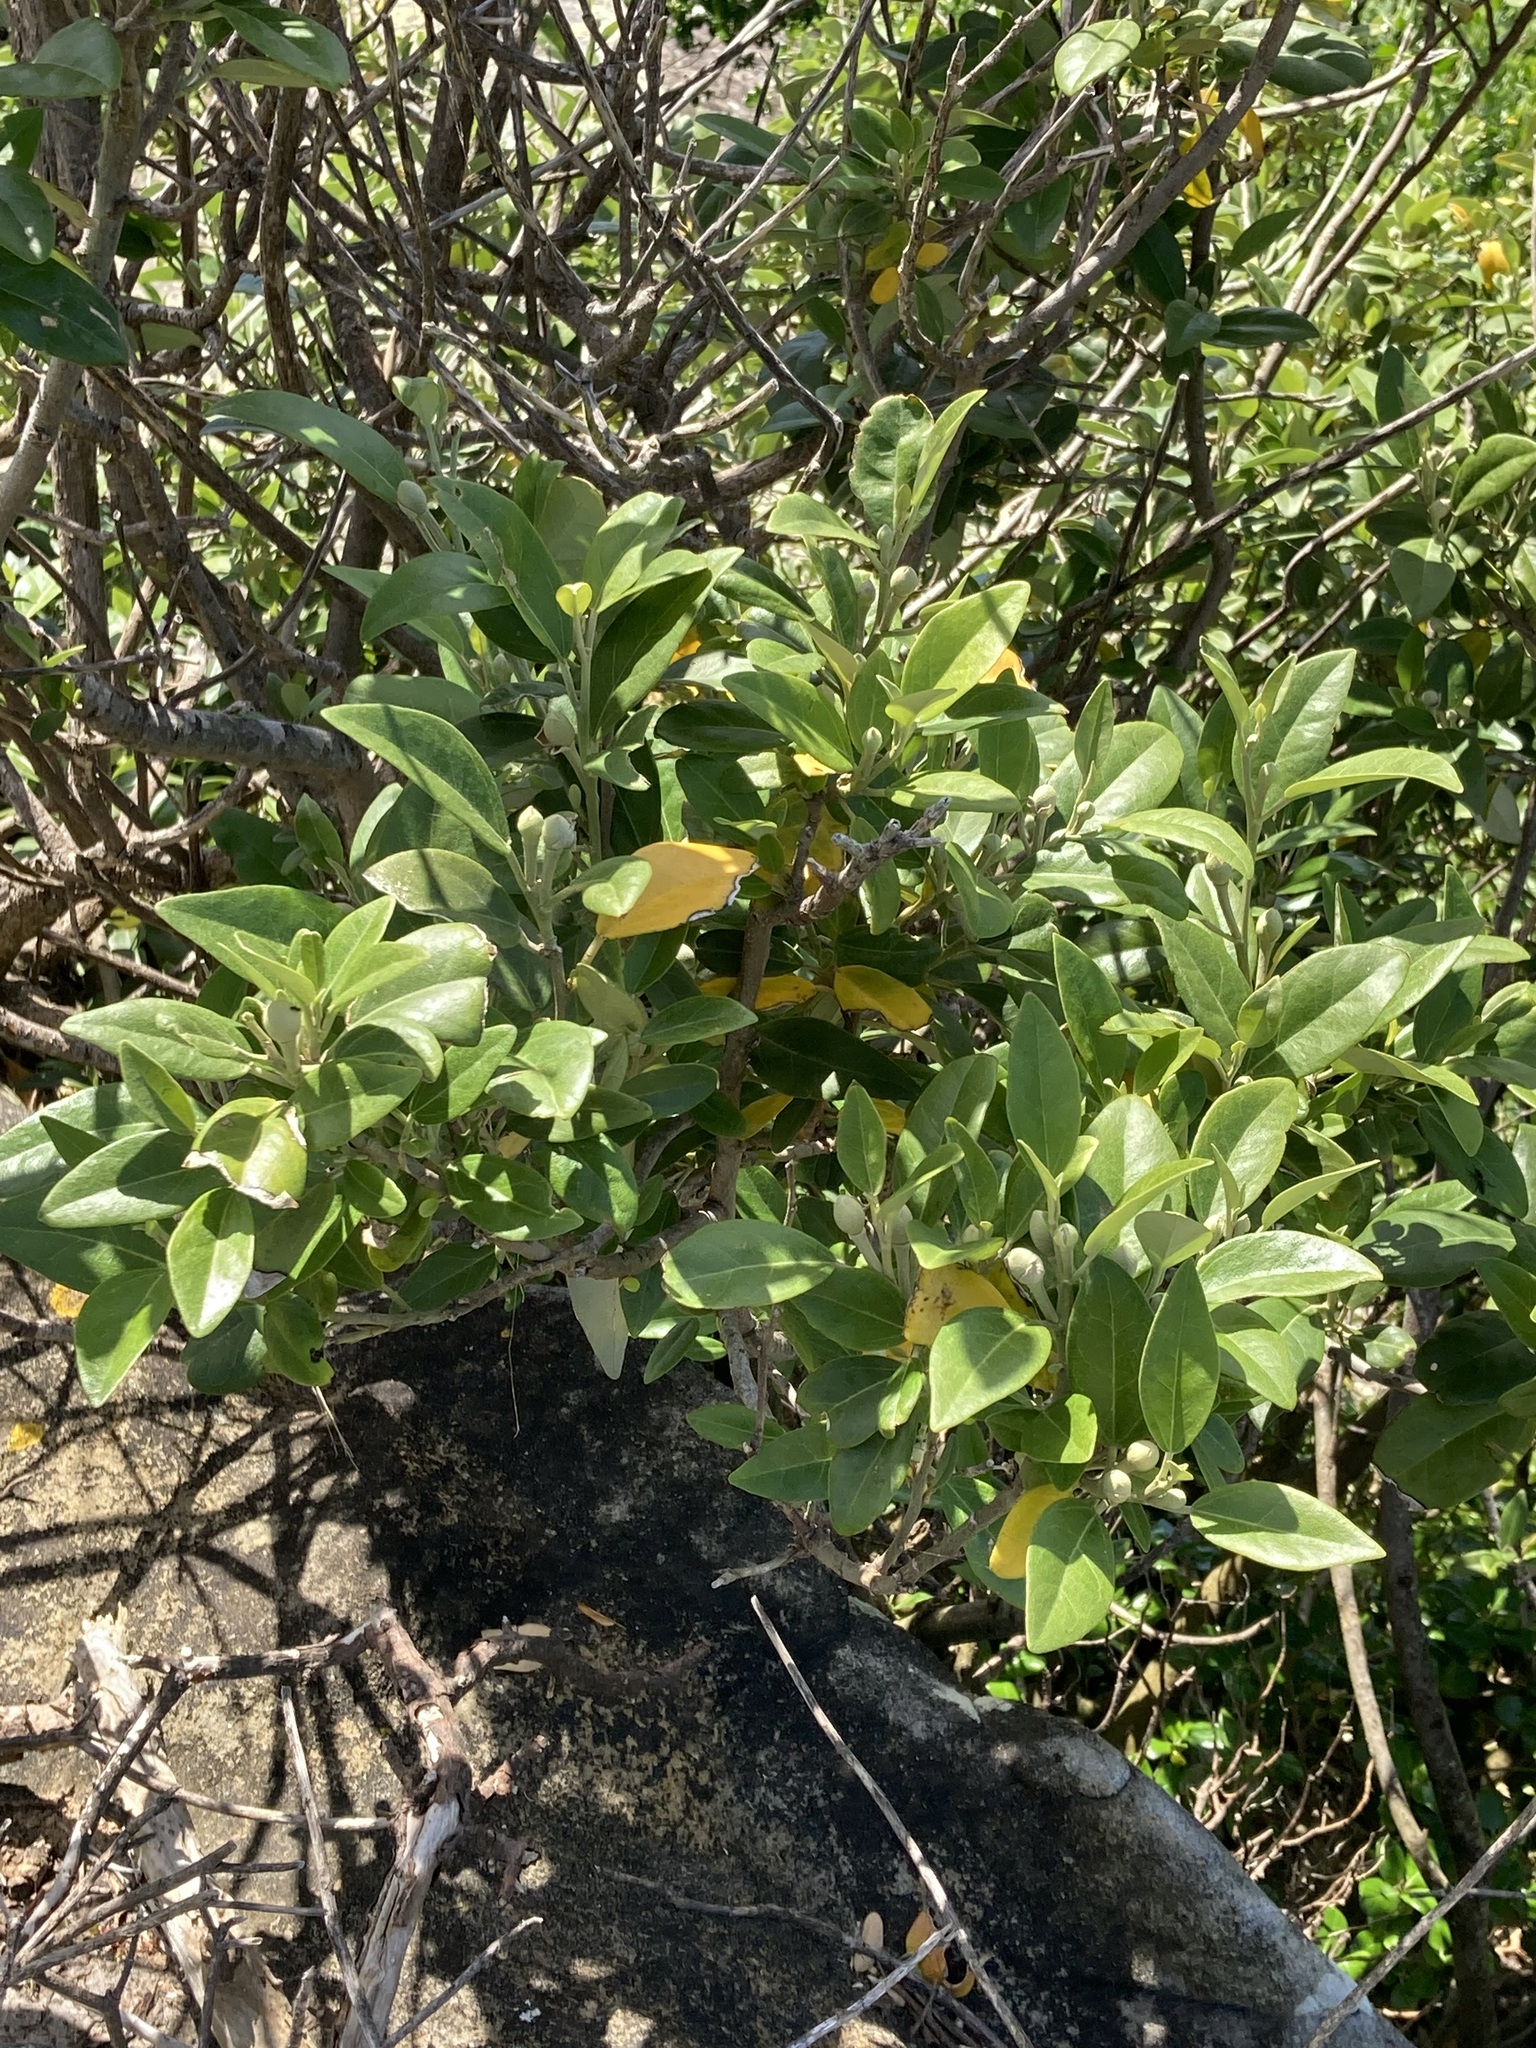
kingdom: Plantae
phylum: Tracheophyta
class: Magnoliopsida
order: Malvales
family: Malvaceae
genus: Lagunaria
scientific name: Lagunaria patersonia
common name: Cow itch tree
